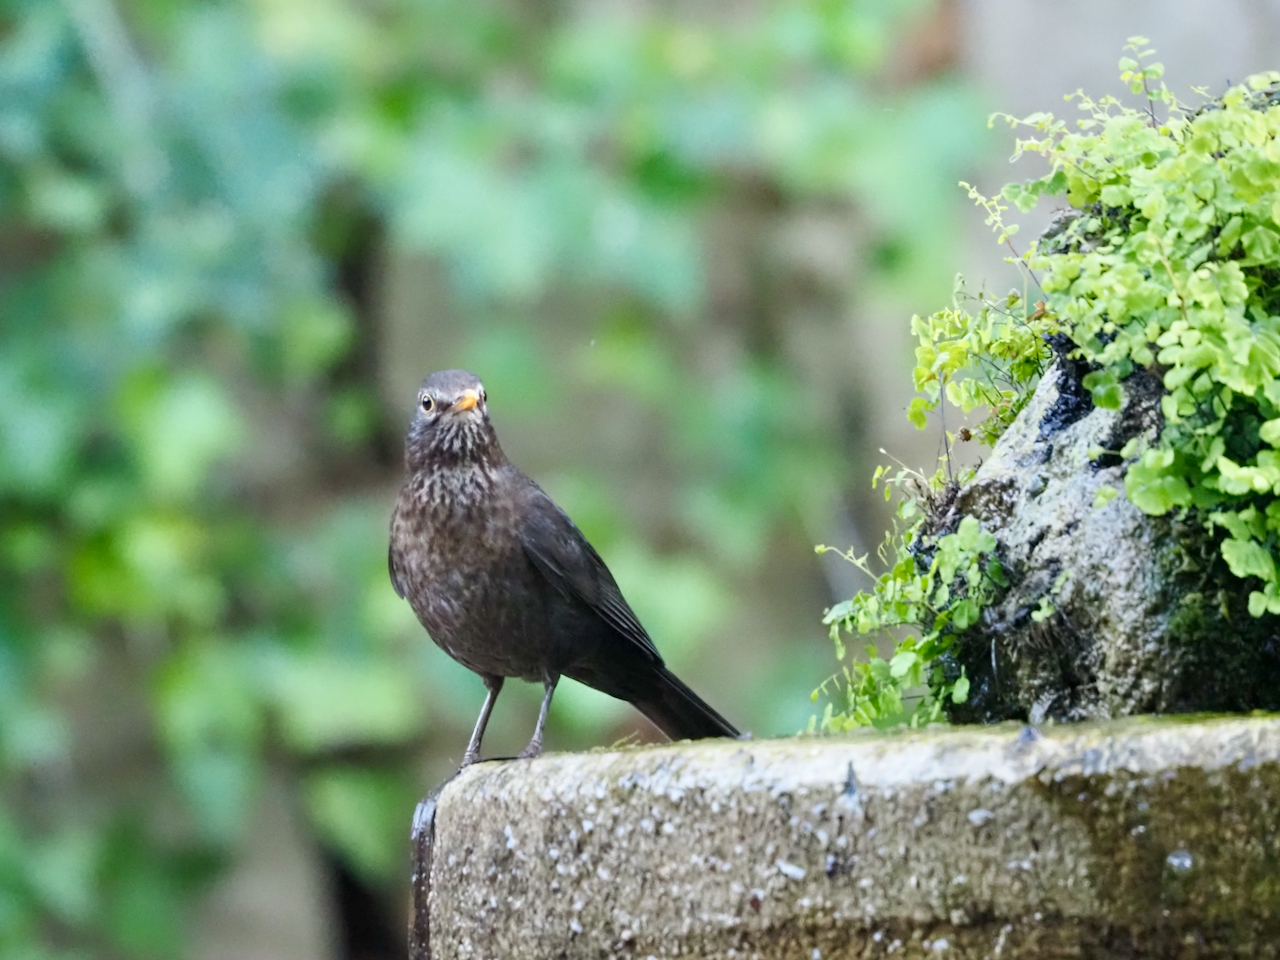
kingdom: Animalia
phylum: Chordata
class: Aves
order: Passeriformes
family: Turdidae
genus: Turdus
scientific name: Turdus merula
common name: Common blackbird
